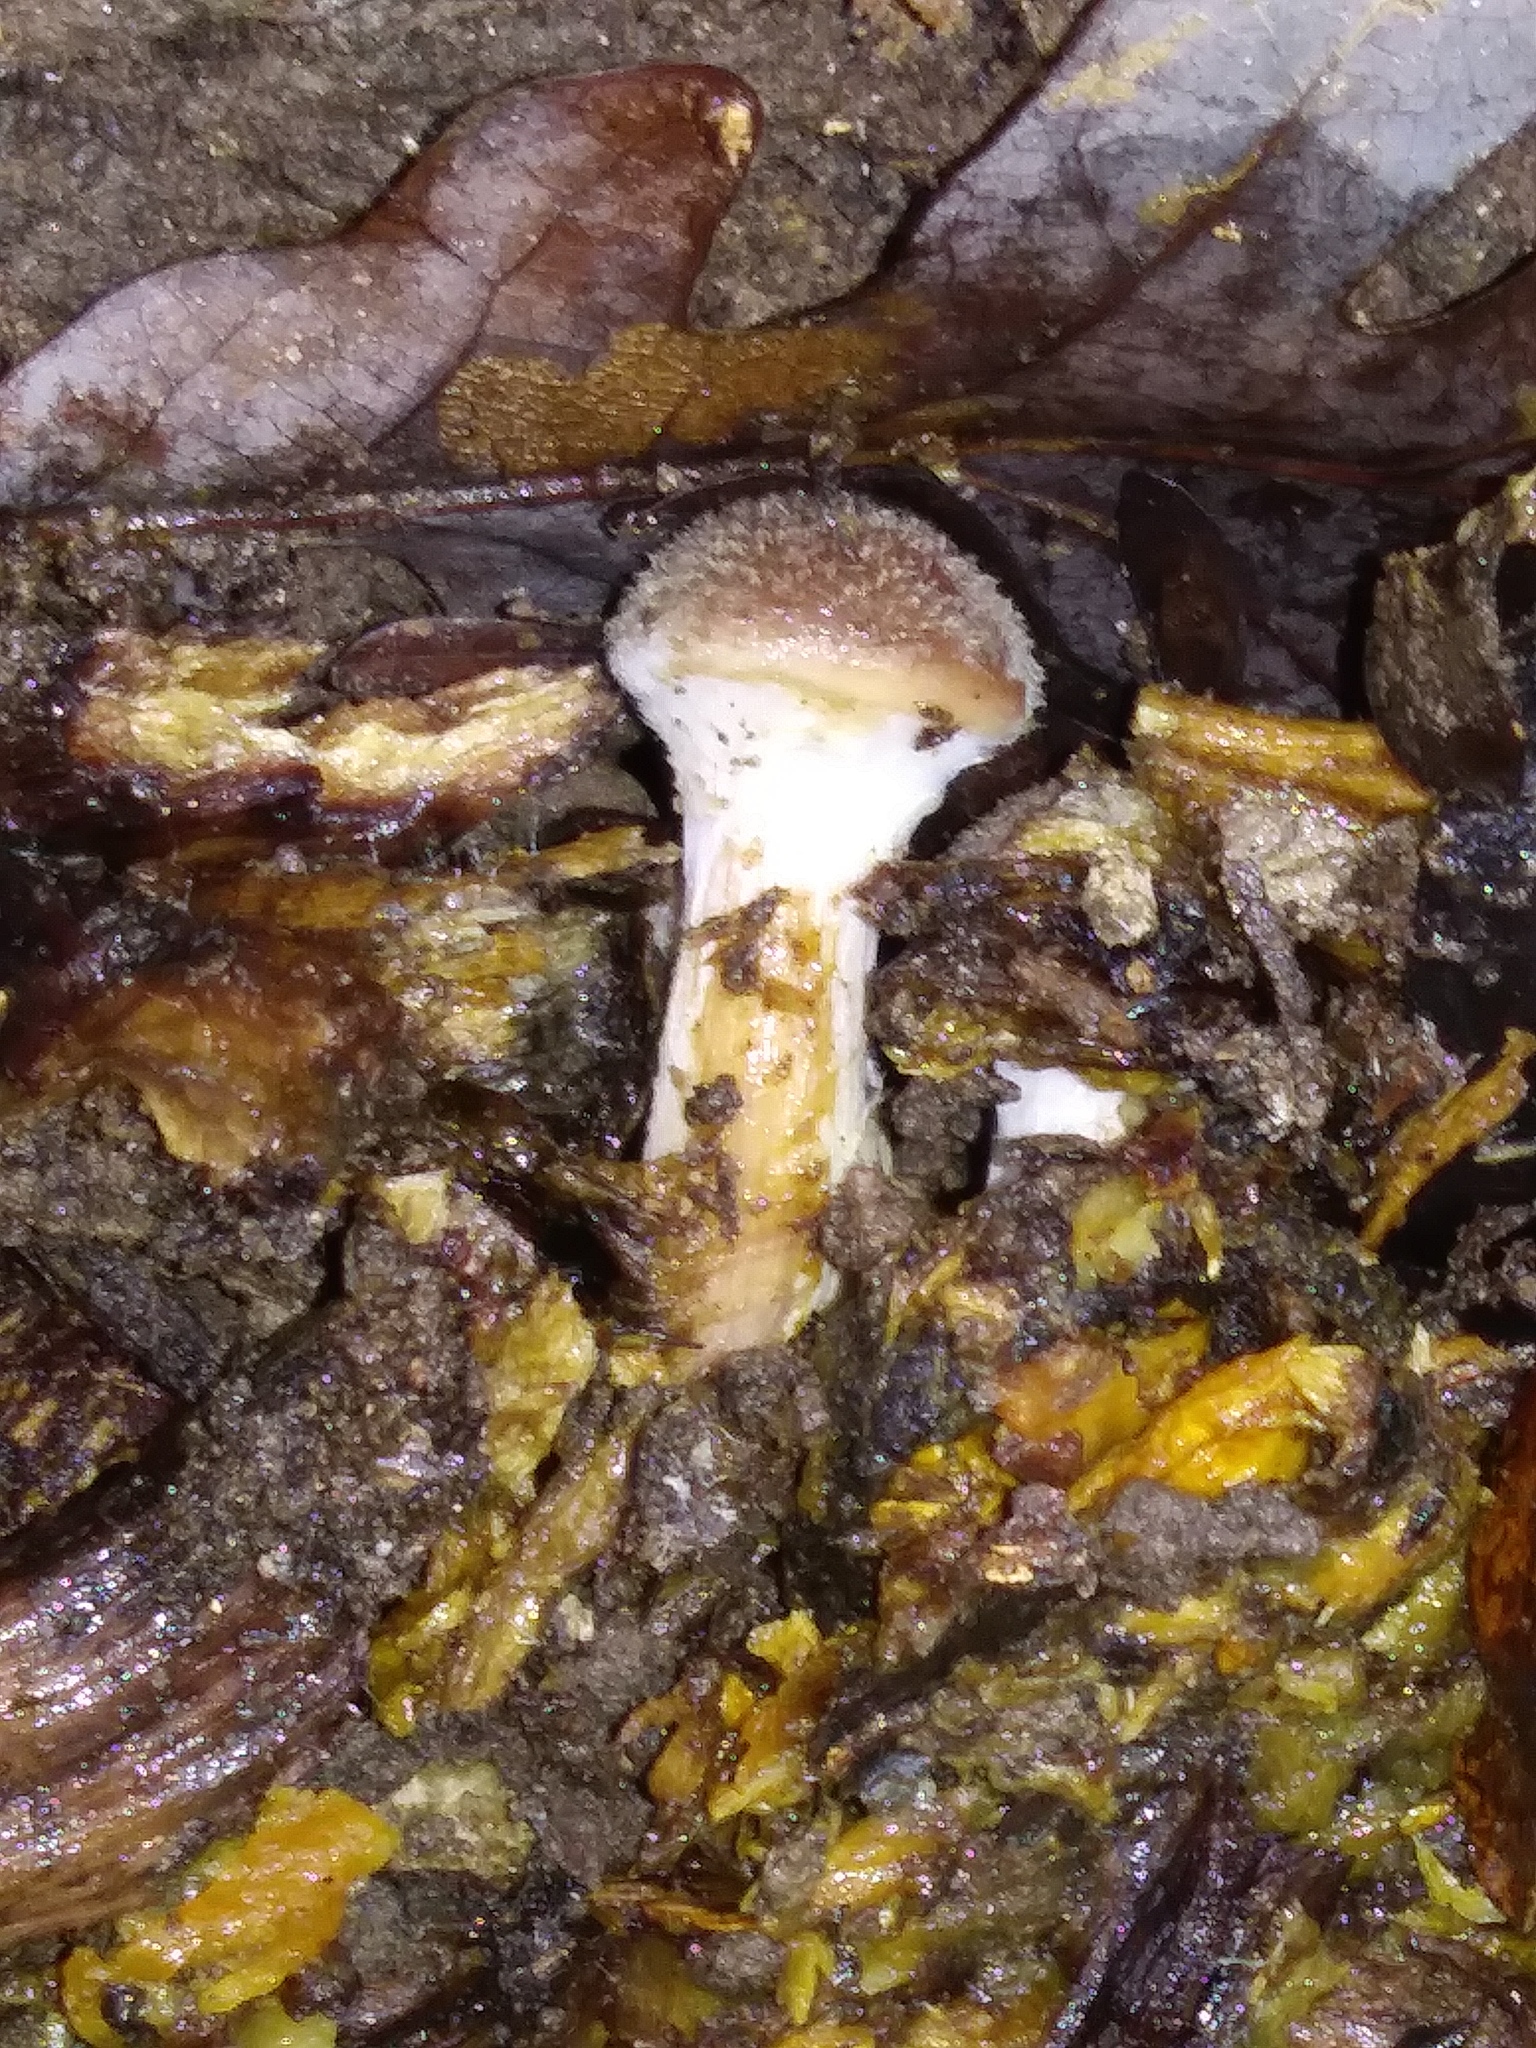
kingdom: Fungi
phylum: Basidiomycota
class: Agaricomycetes
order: Agaricales
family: Physalacriaceae
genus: Armillaria
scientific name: Armillaria mellea
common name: Honey fungus
